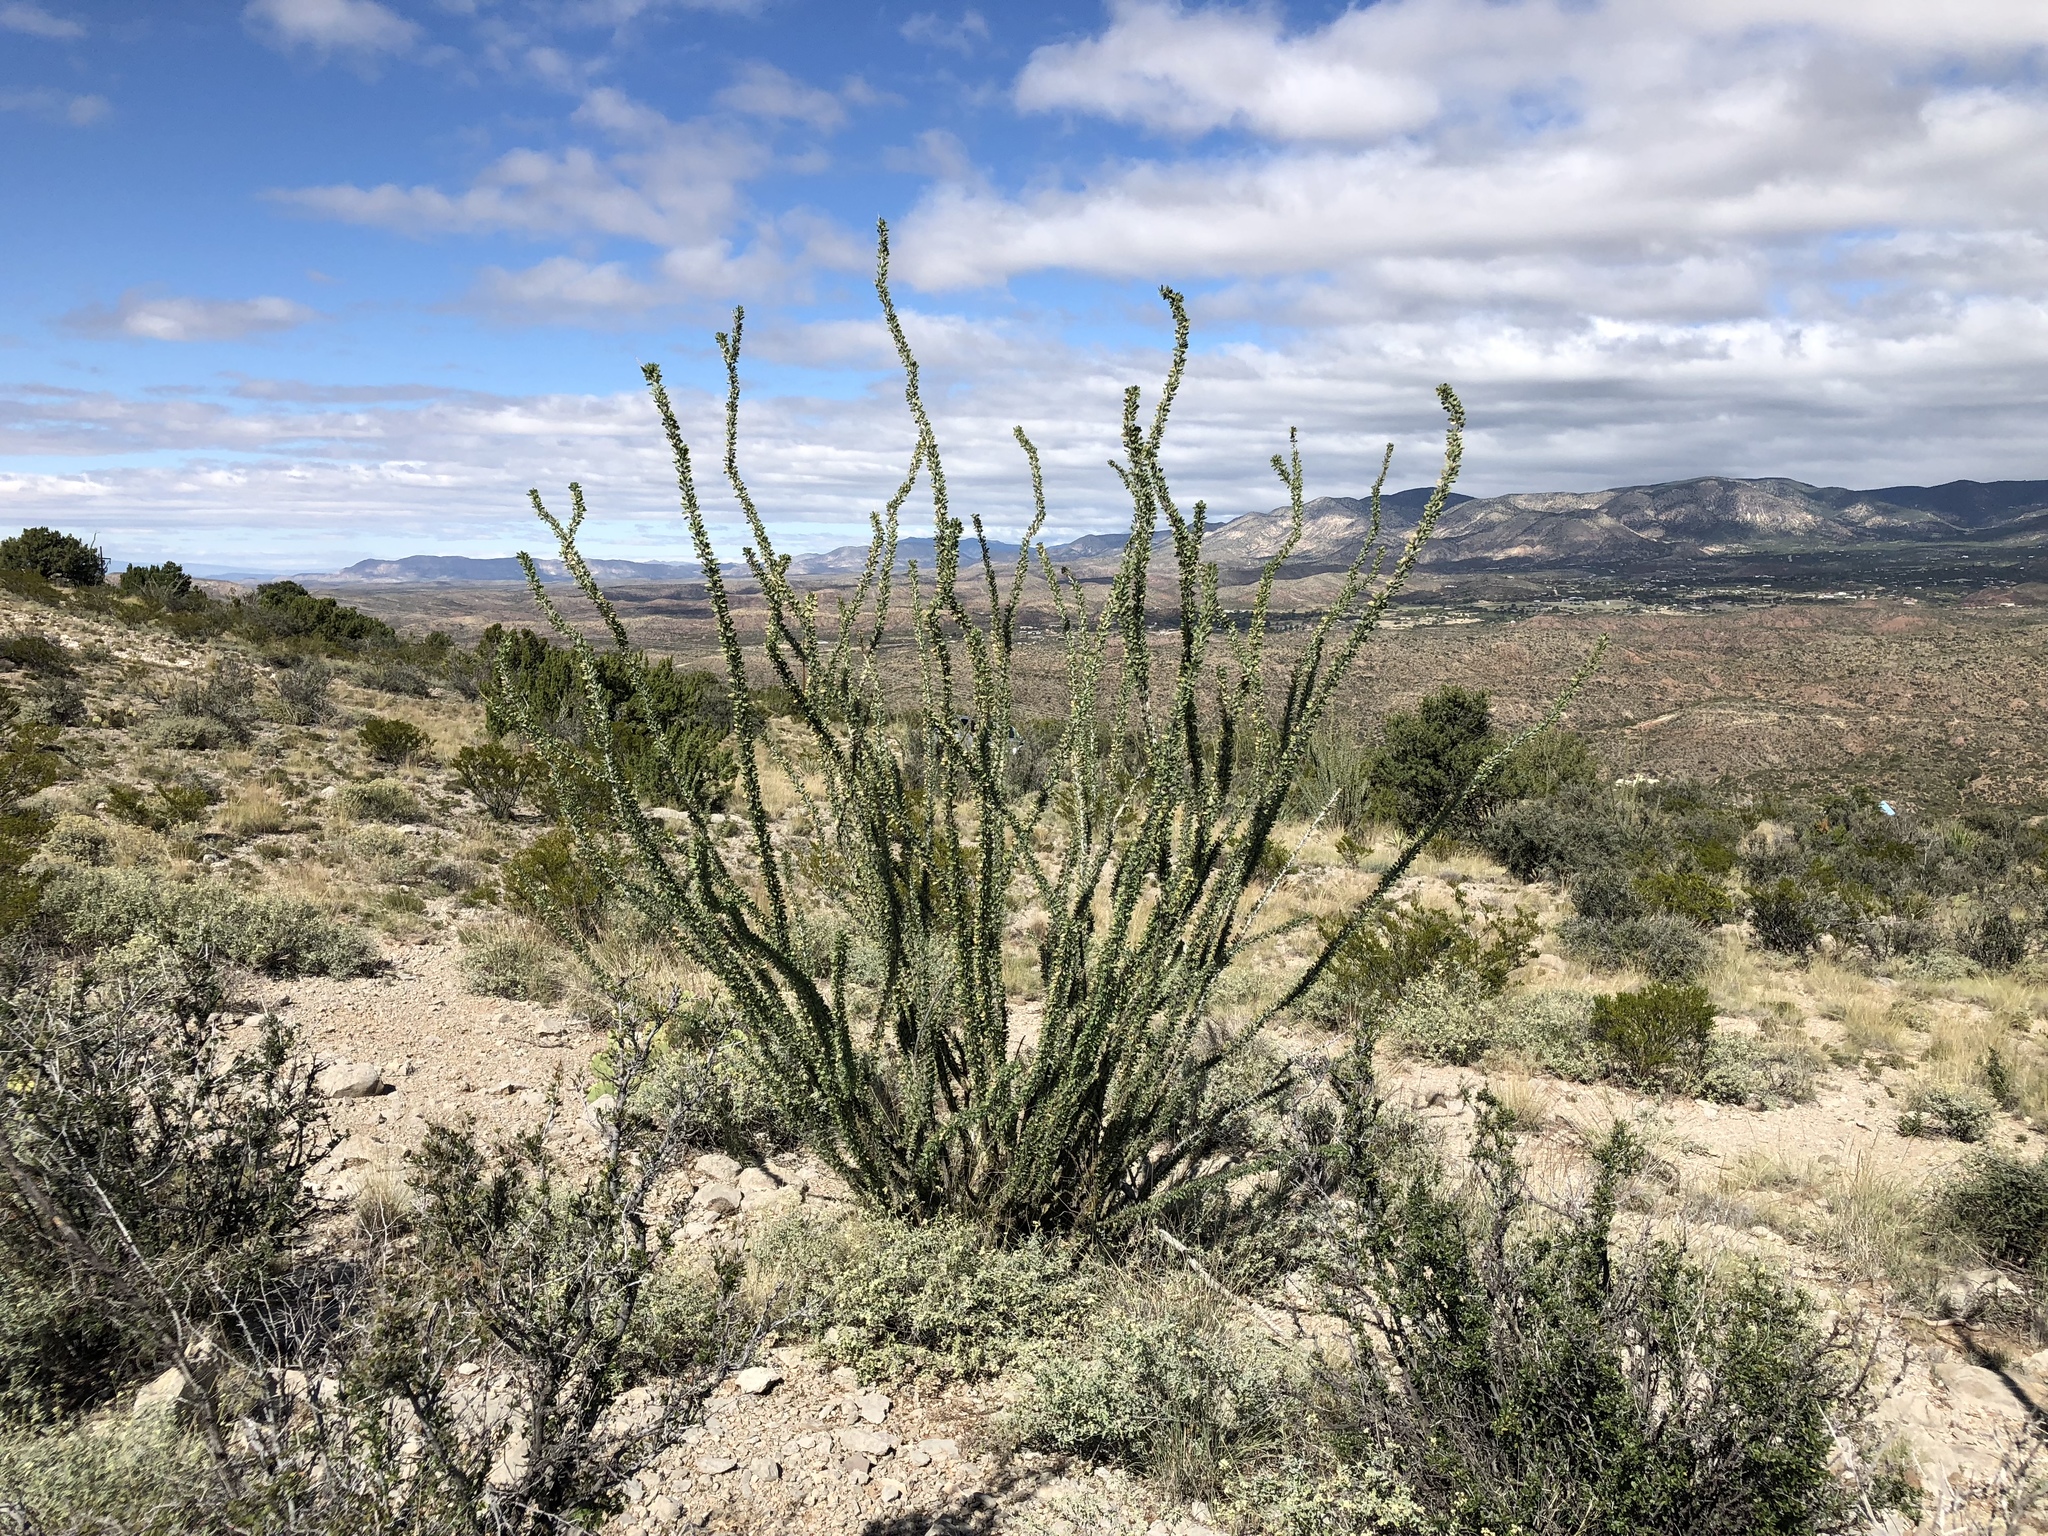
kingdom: Plantae
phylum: Tracheophyta
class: Magnoliopsida
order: Ericales
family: Fouquieriaceae
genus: Fouquieria
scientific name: Fouquieria splendens
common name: Vine-cactus
